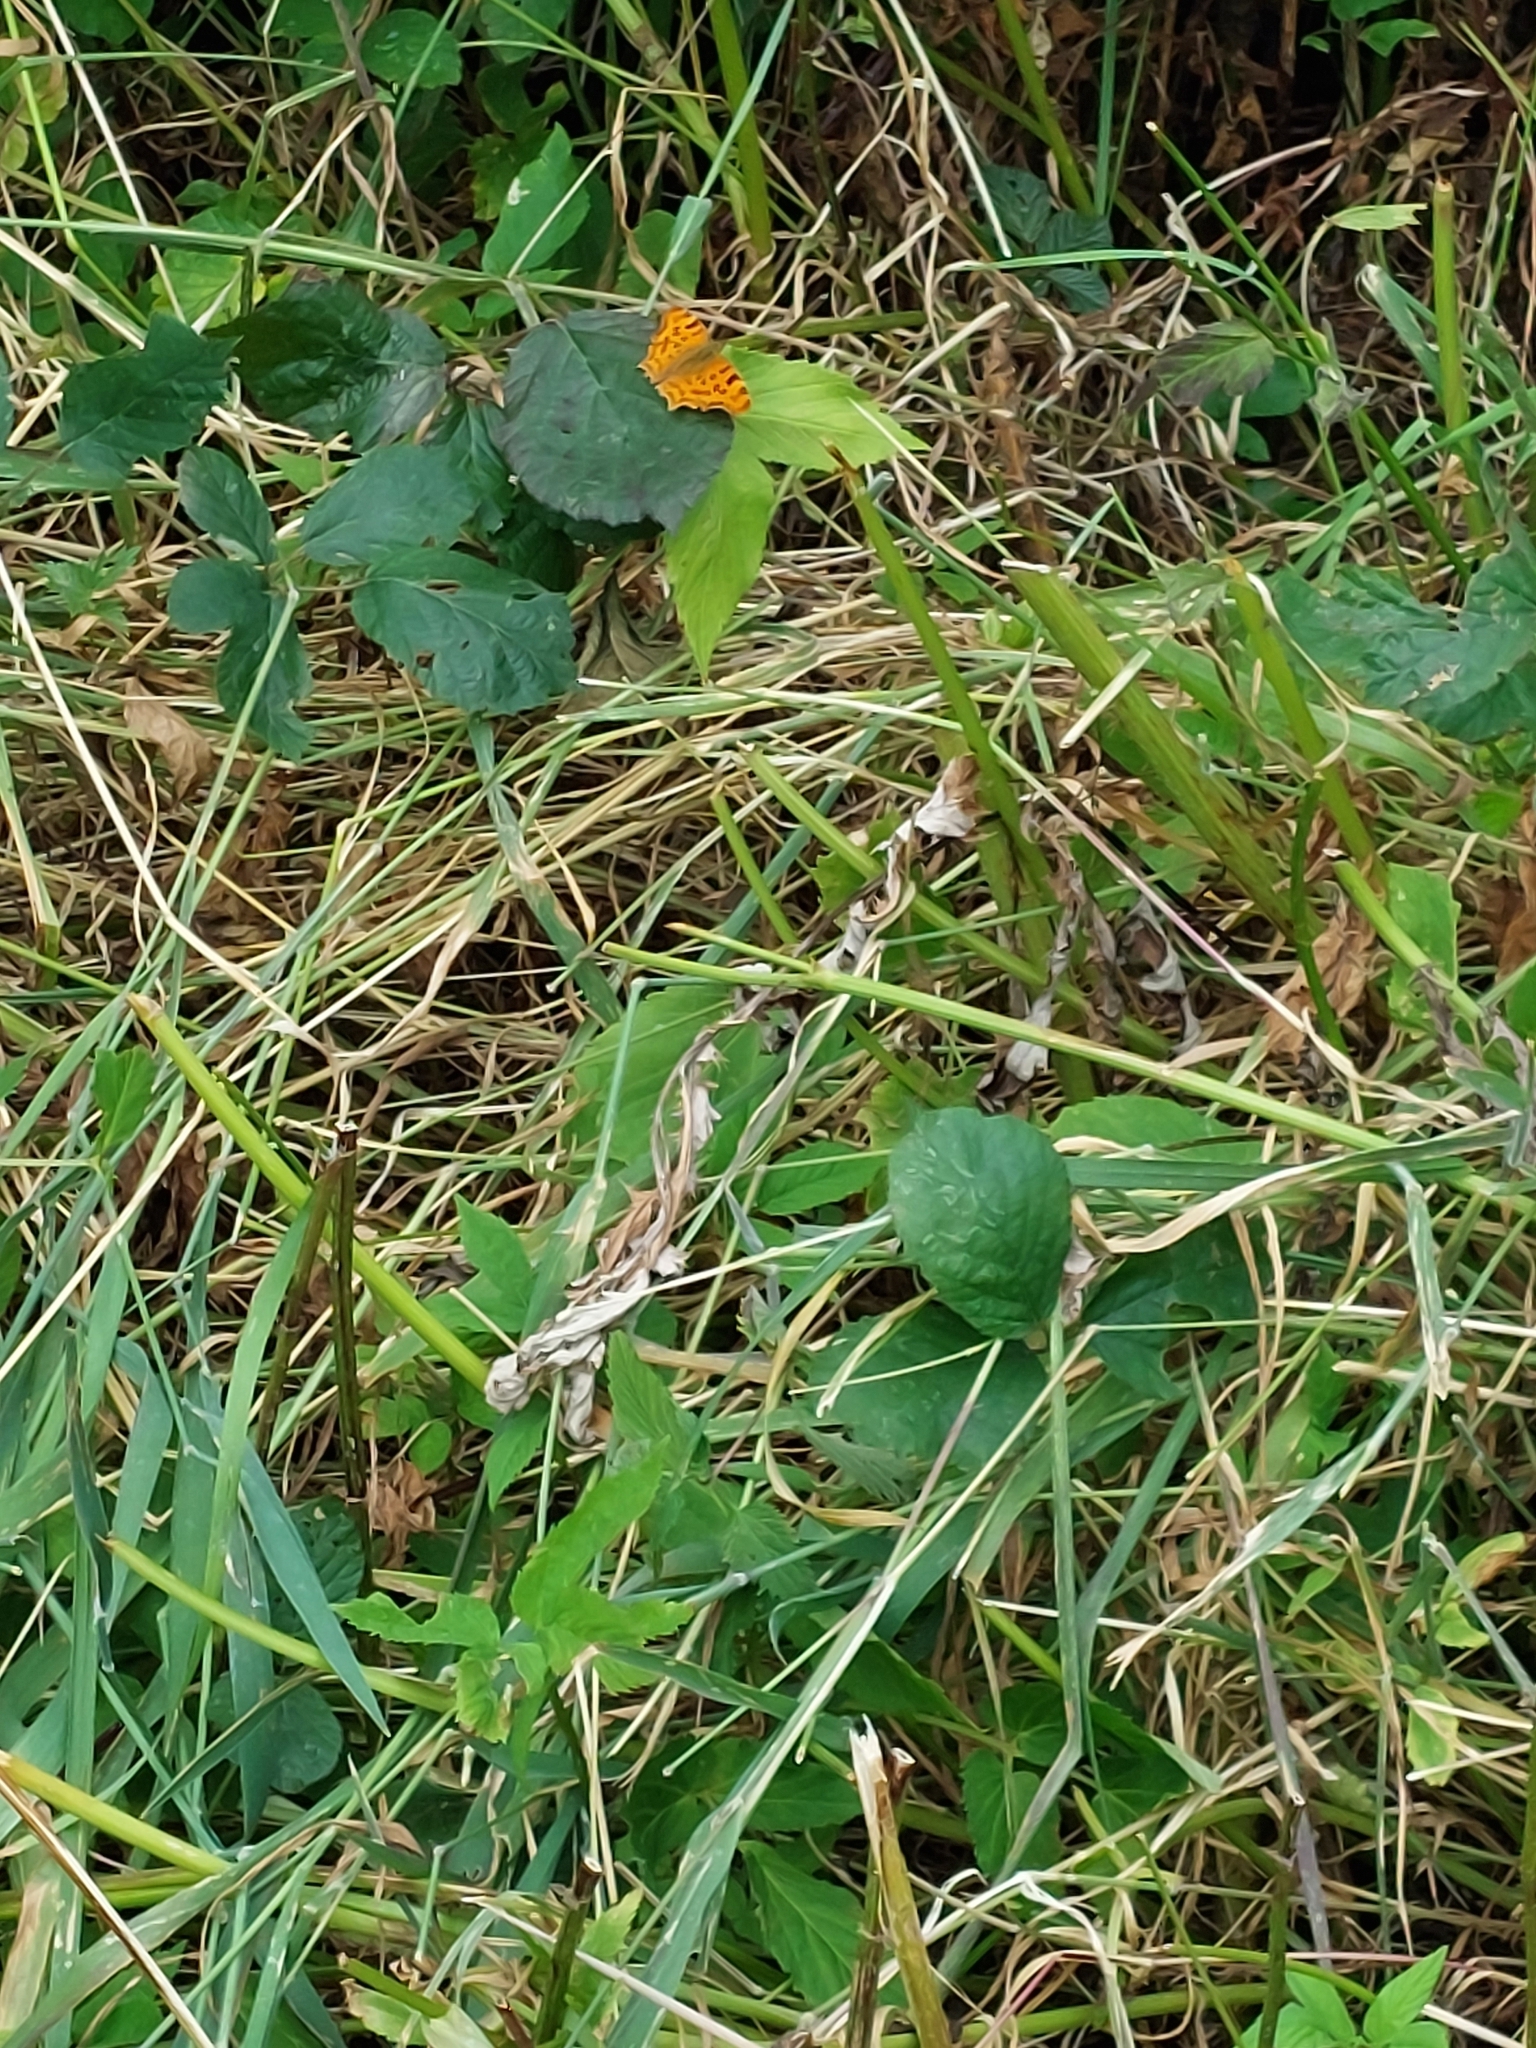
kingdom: Animalia
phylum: Arthropoda
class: Insecta
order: Lepidoptera
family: Nymphalidae
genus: Polygonia
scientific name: Polygonia c-album
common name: Comma
